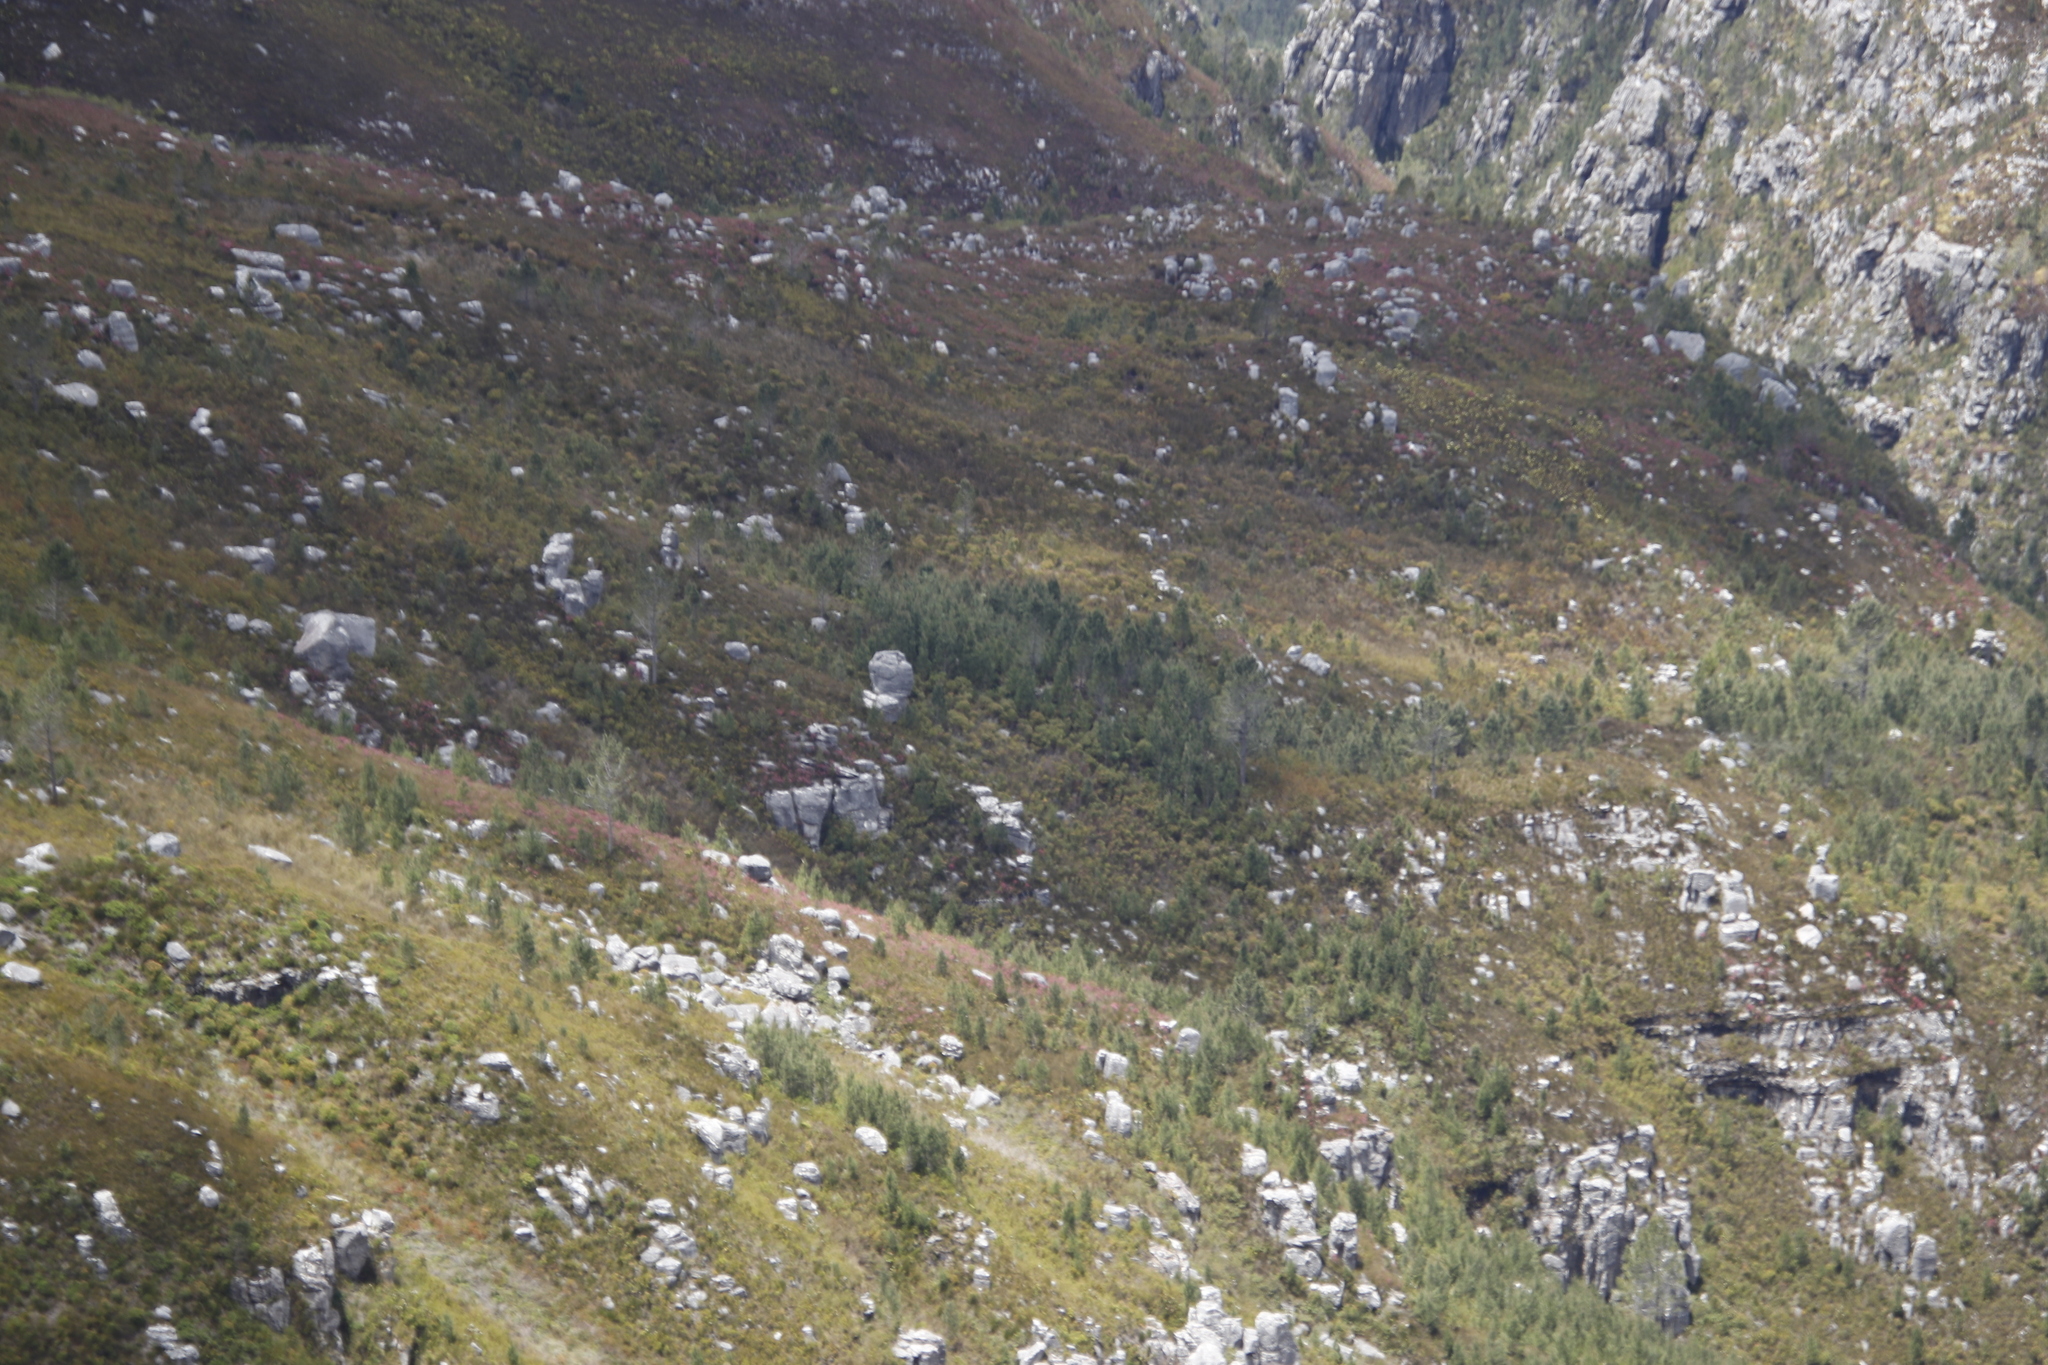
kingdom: Plantae
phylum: Tracheophyta
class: Pinopsida
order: Pinales
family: Pinaceae
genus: Pinus
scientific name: Pinus pinaster
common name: Maritime pine
